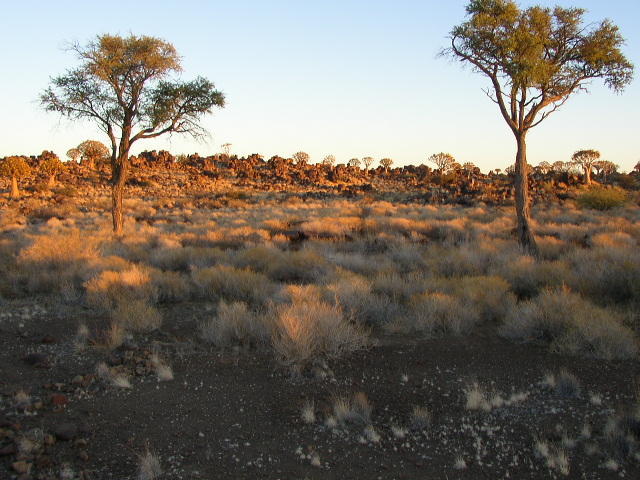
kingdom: Plantae
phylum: Tracheophyta
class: Magnoliopsida
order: Fabales
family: Fabaceae
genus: Vachellia
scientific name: Vachellia erioloba
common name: Camel thorn
